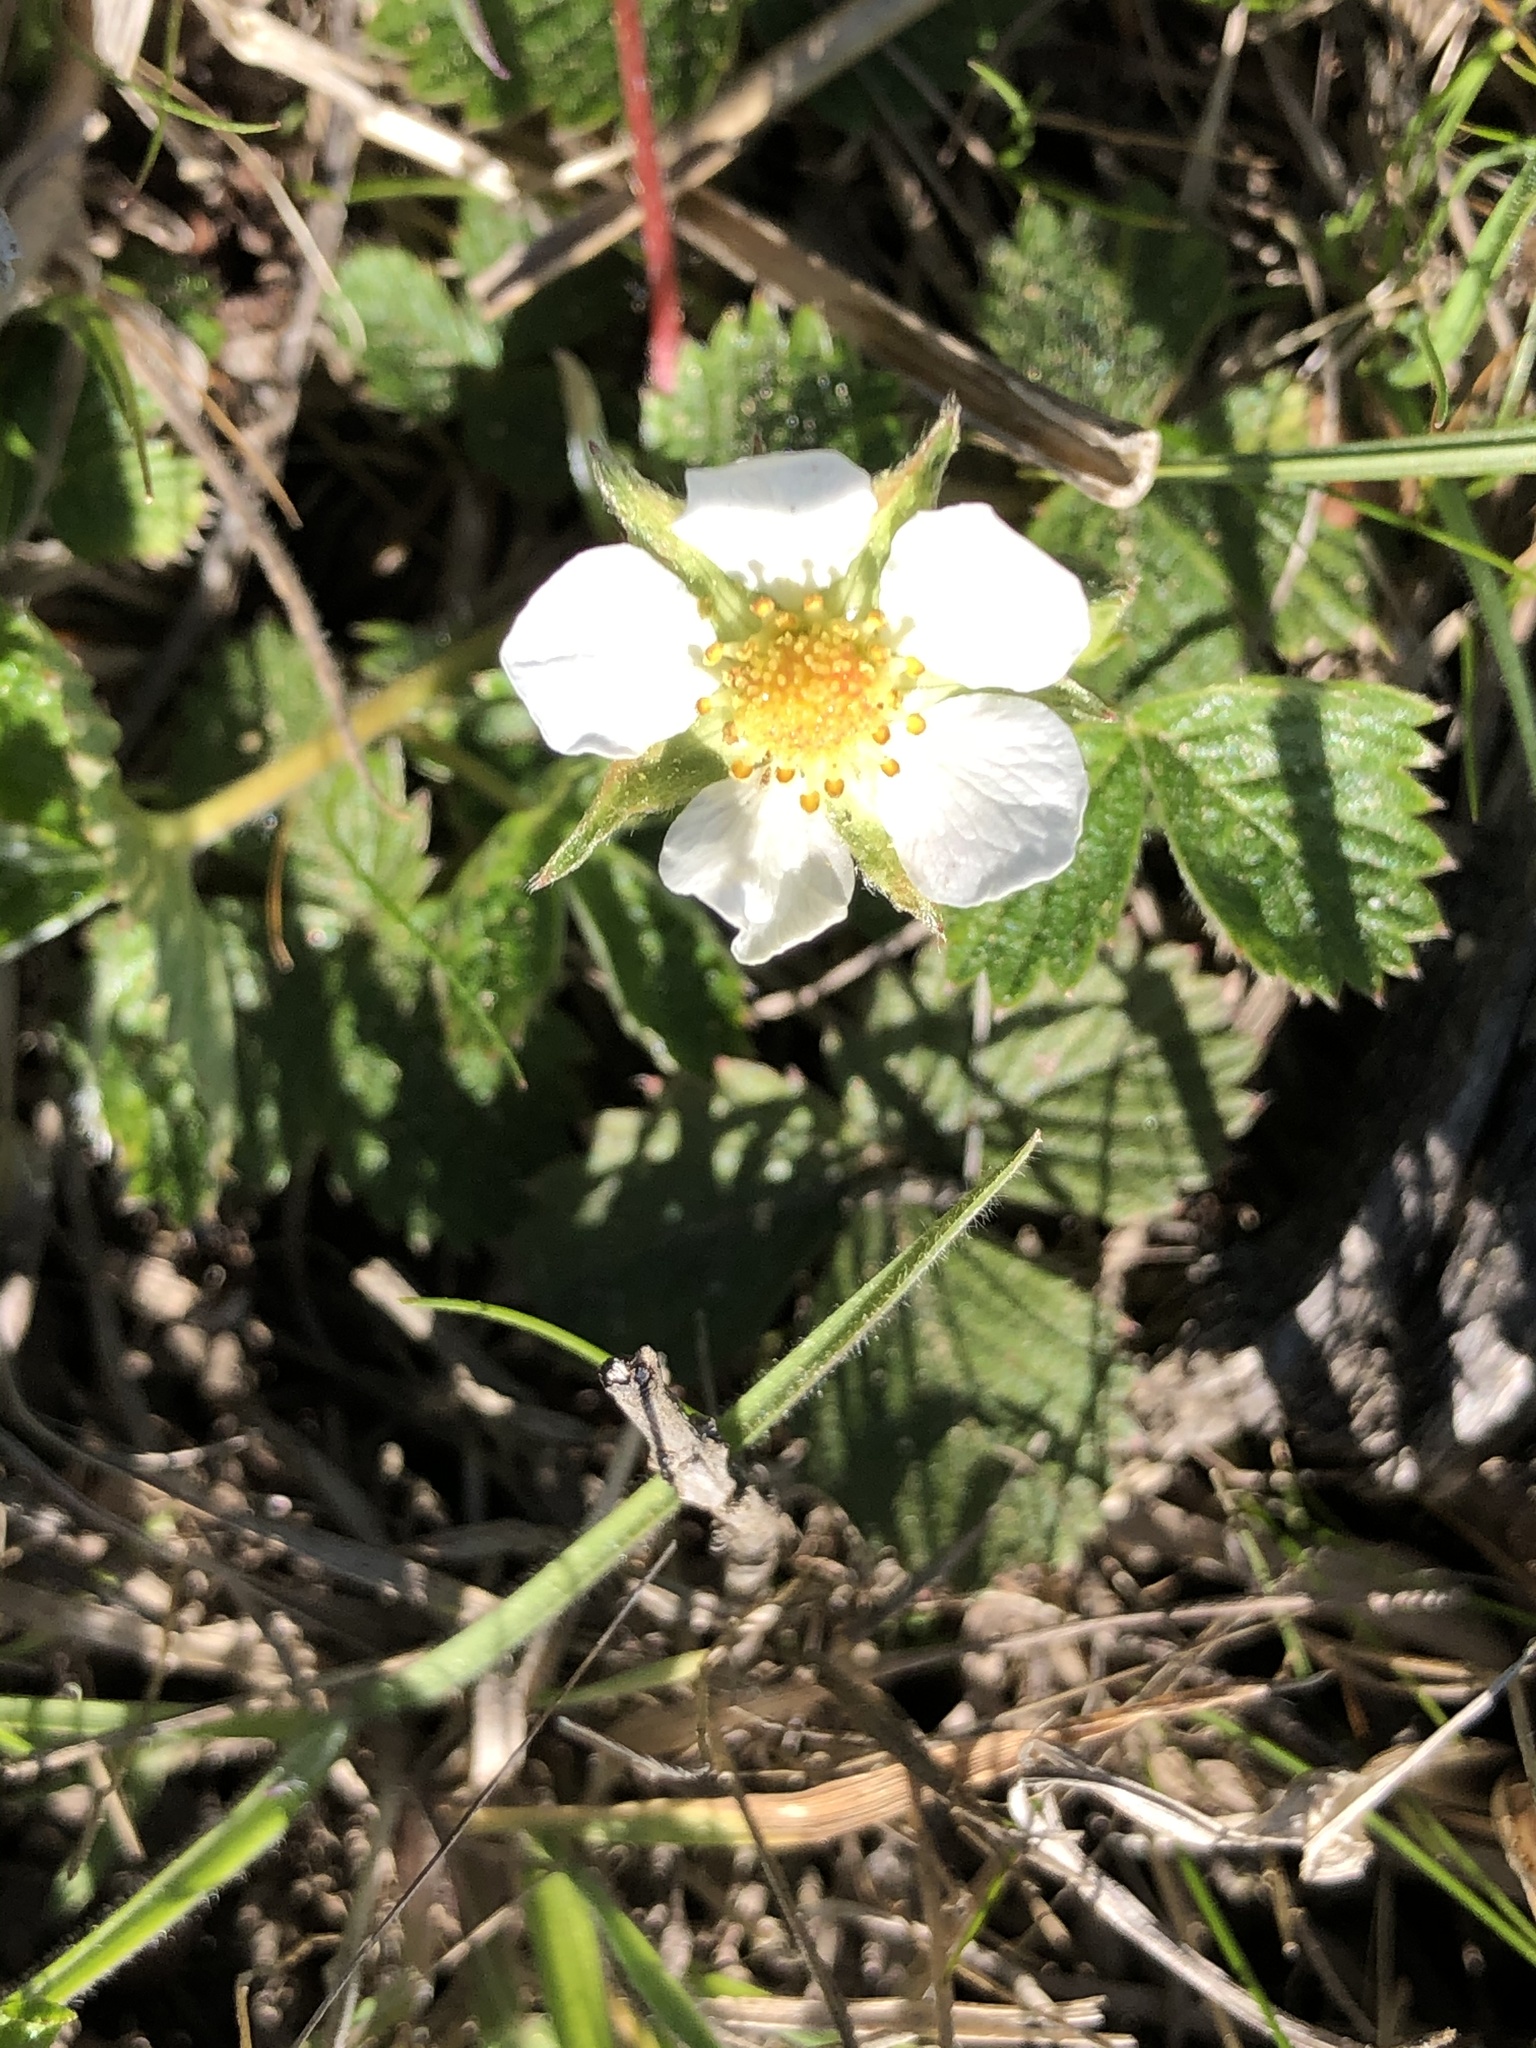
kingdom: Plantae
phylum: Tracheophyta
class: Magnoliopsida
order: Rosales
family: Rosaceae
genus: Fragaria
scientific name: Fragaria vesca
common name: Wild strawberry
